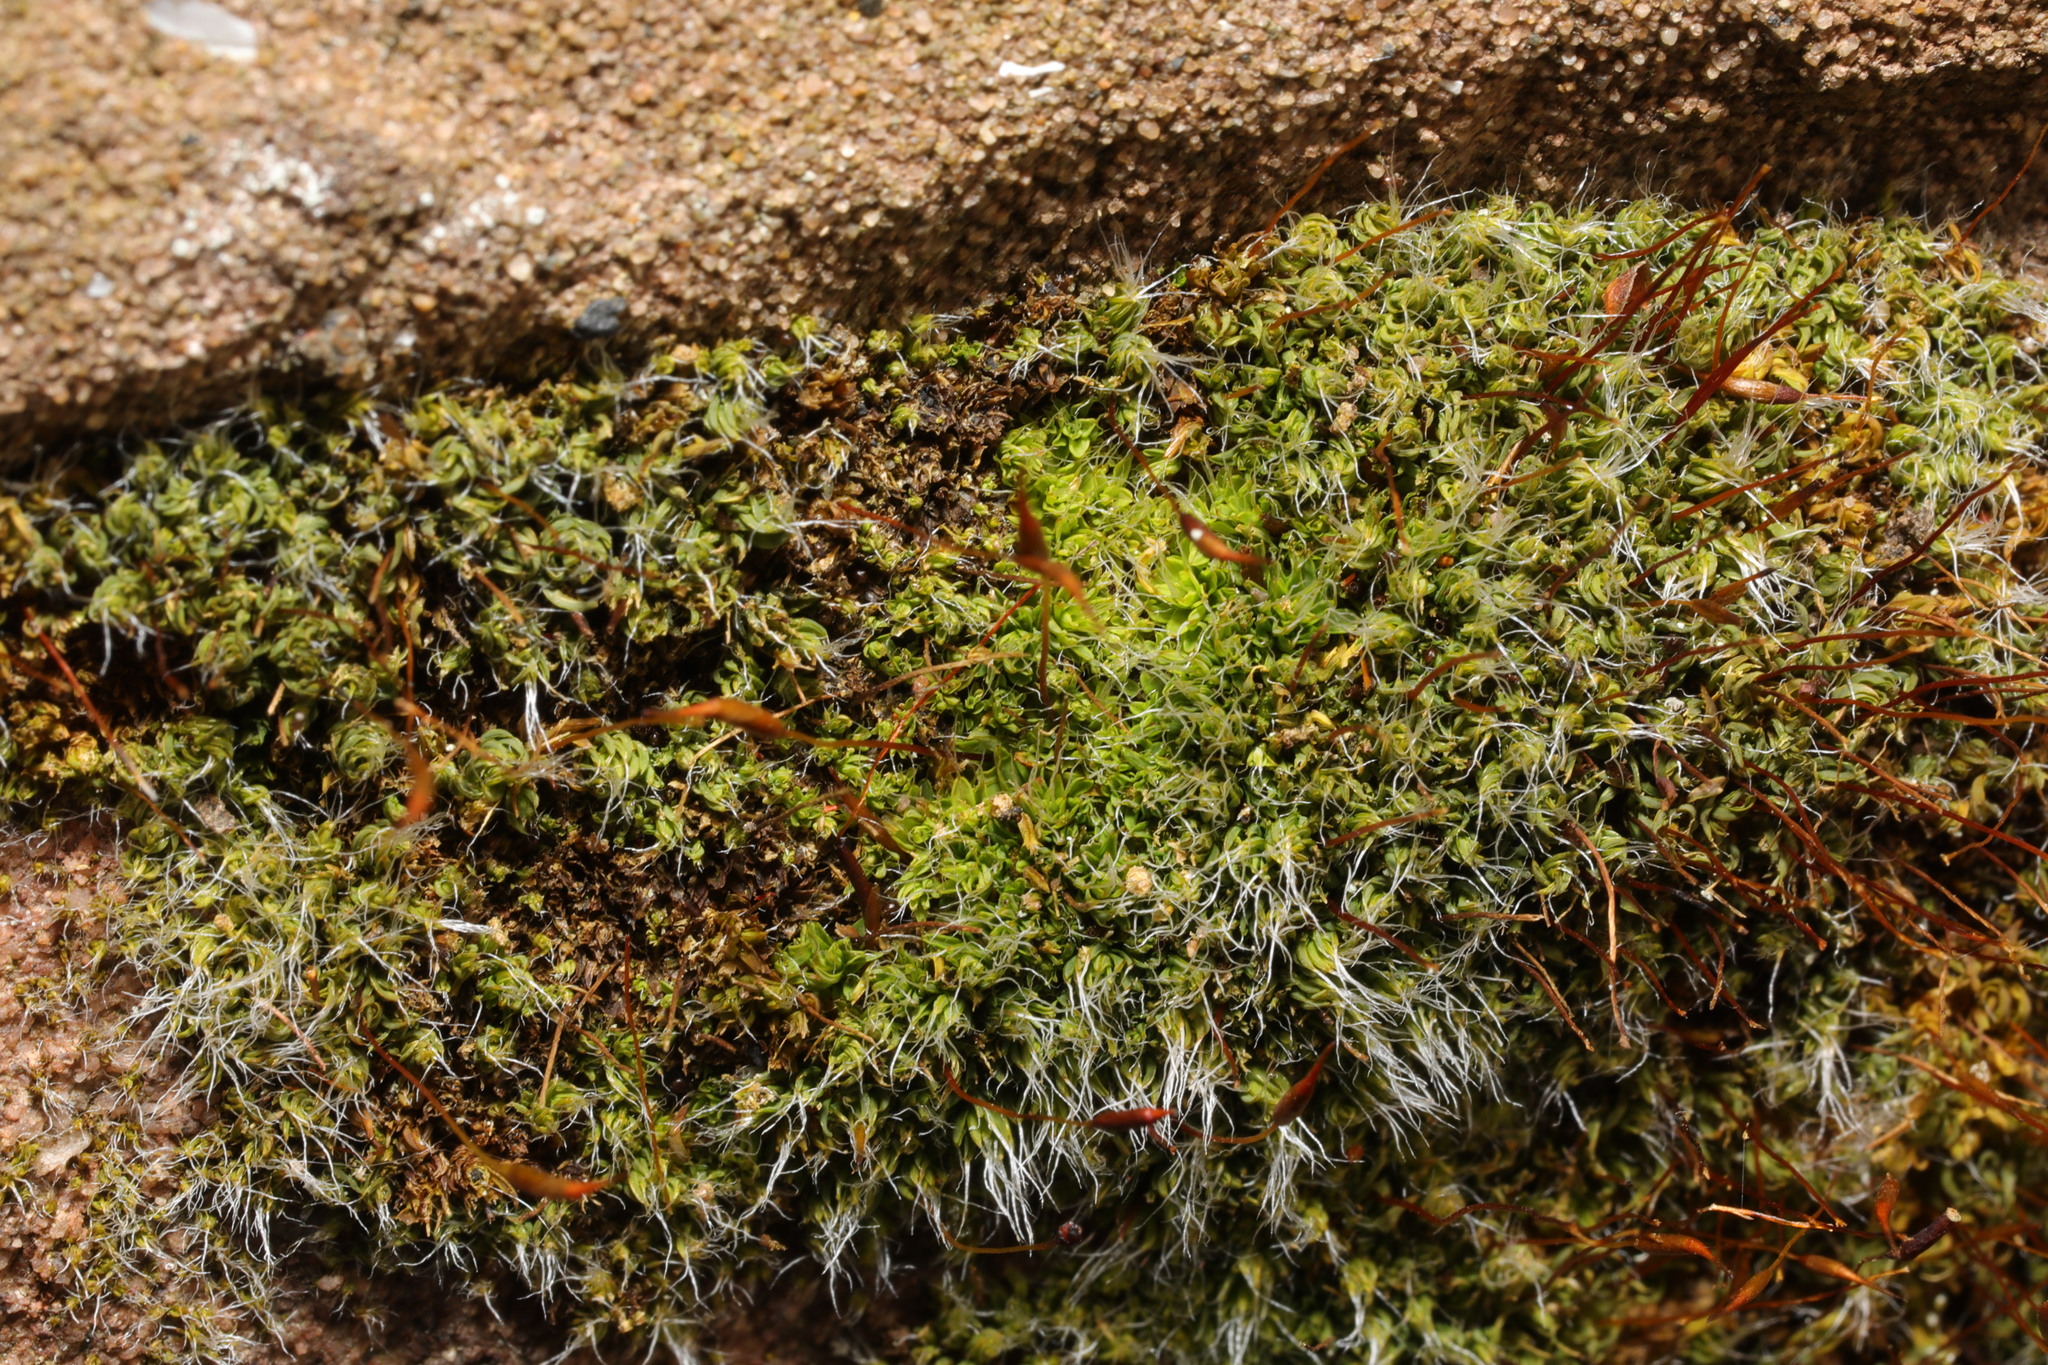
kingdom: Plantae
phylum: Bryophyta
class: Bryopsida
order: Pottiales
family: Pottiaceae
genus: Tortula
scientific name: Tortula muralis
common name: Wall screw-moss
